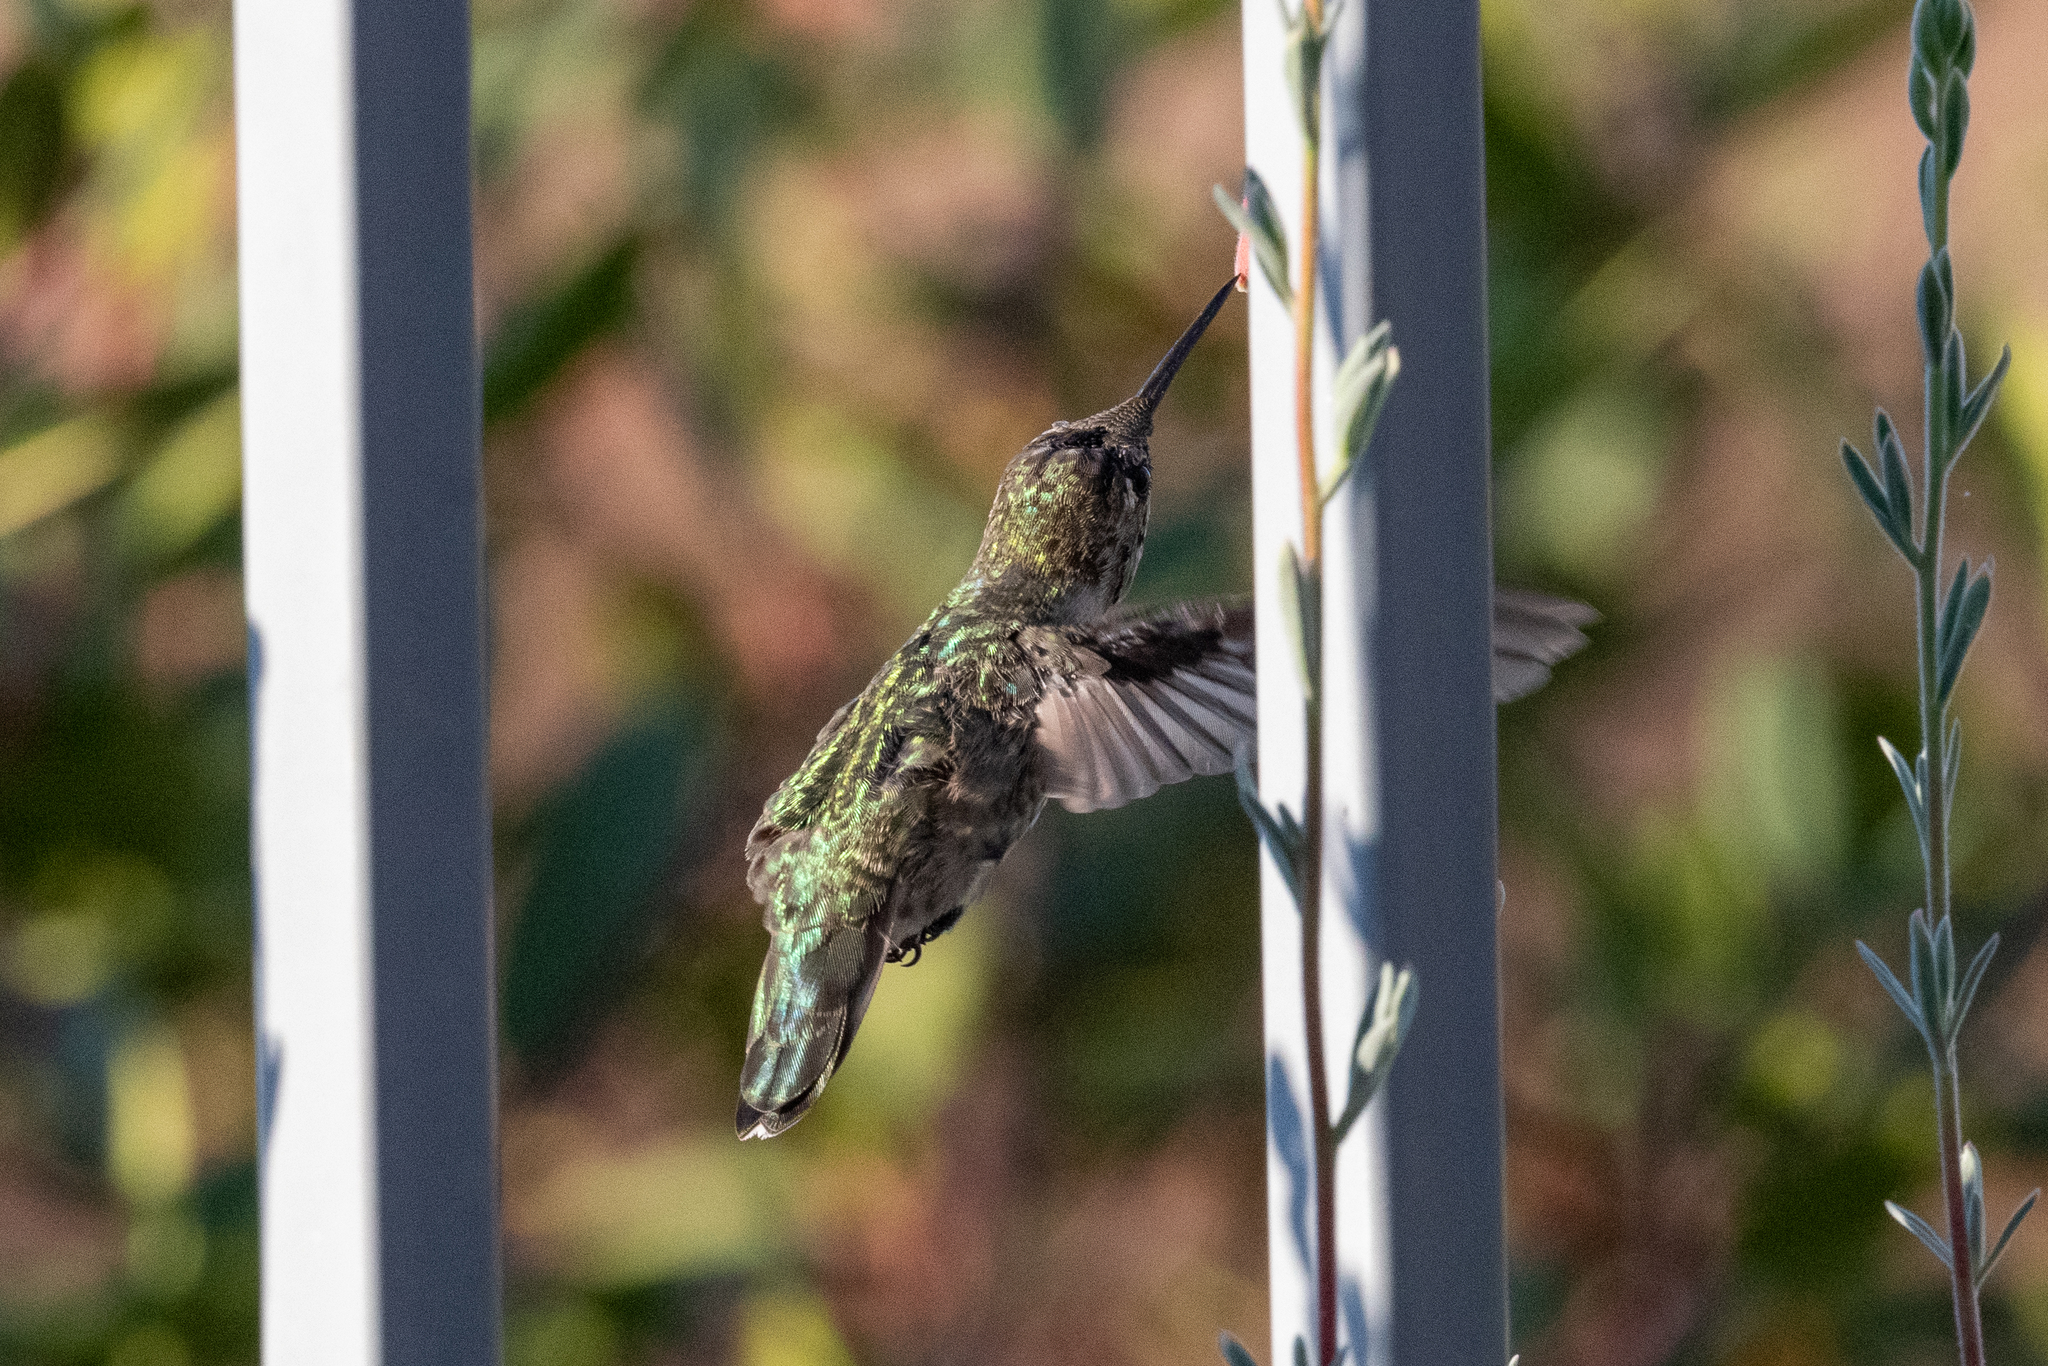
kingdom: Animalia
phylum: Chordata
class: Aves
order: Apodiformes
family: Trochilidae
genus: Calypte
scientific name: Calypte anna
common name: Anna's hummingbird
